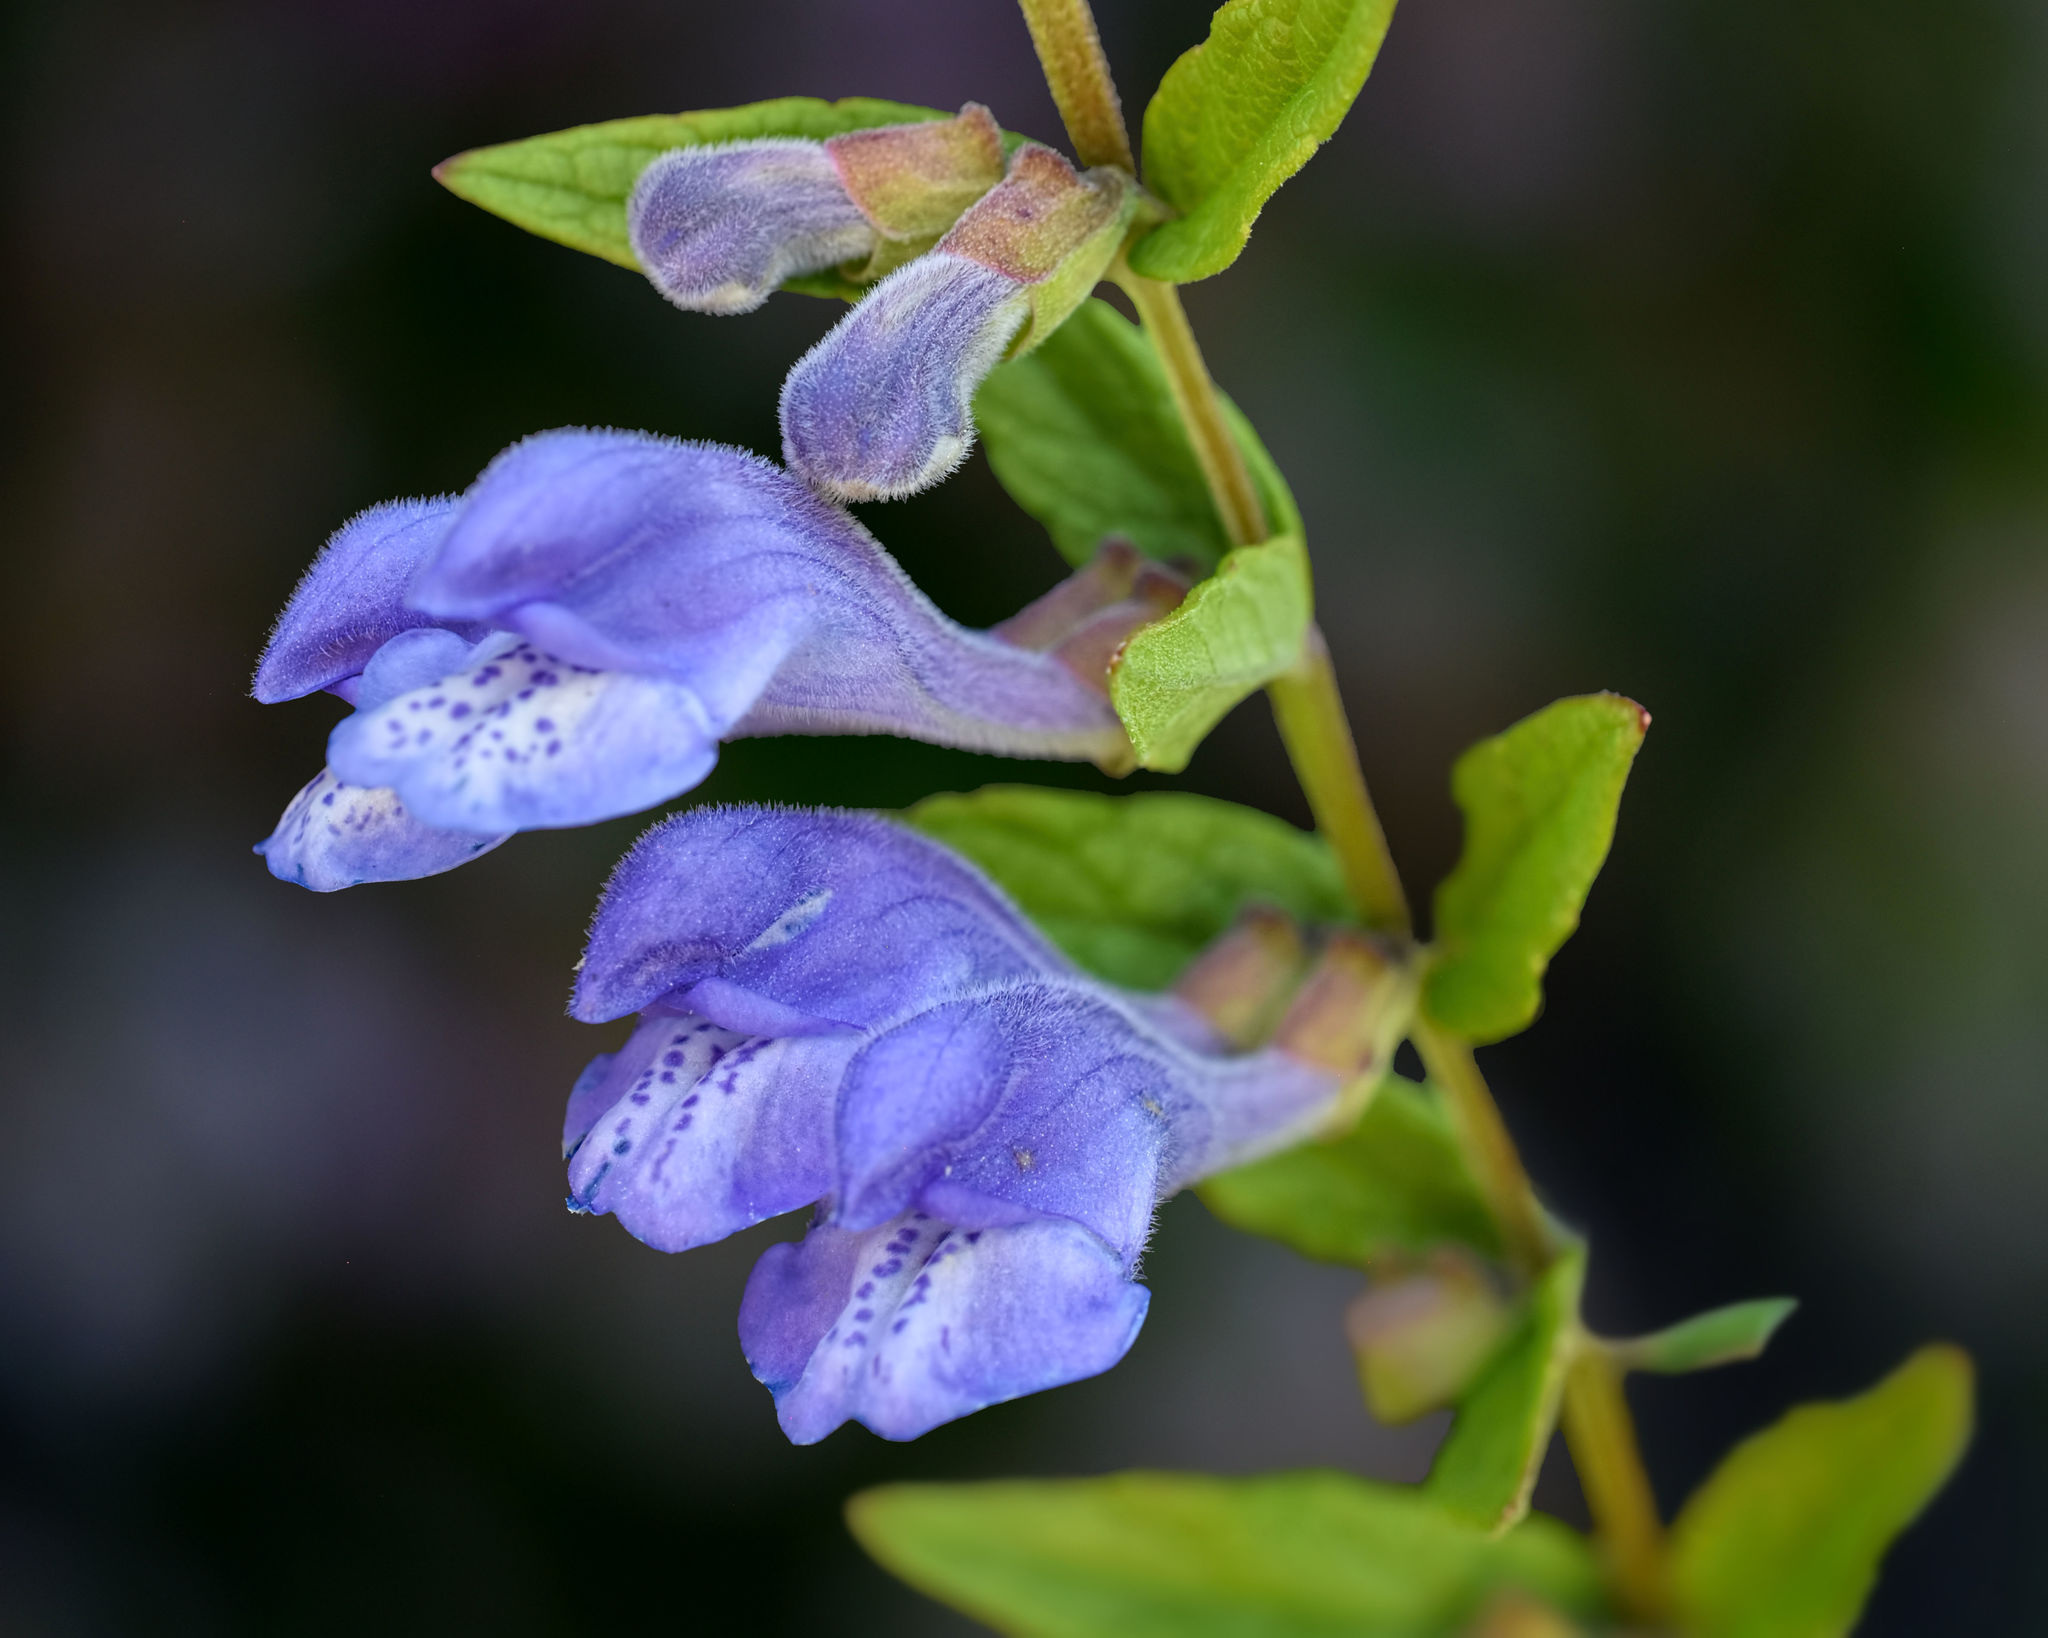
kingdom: Plantae
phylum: Tracheophyta
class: Magnoliopsida
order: Lamiales
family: Lamiaceae
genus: Scutellaria
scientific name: Scutellaria galericulata
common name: Skullcap
